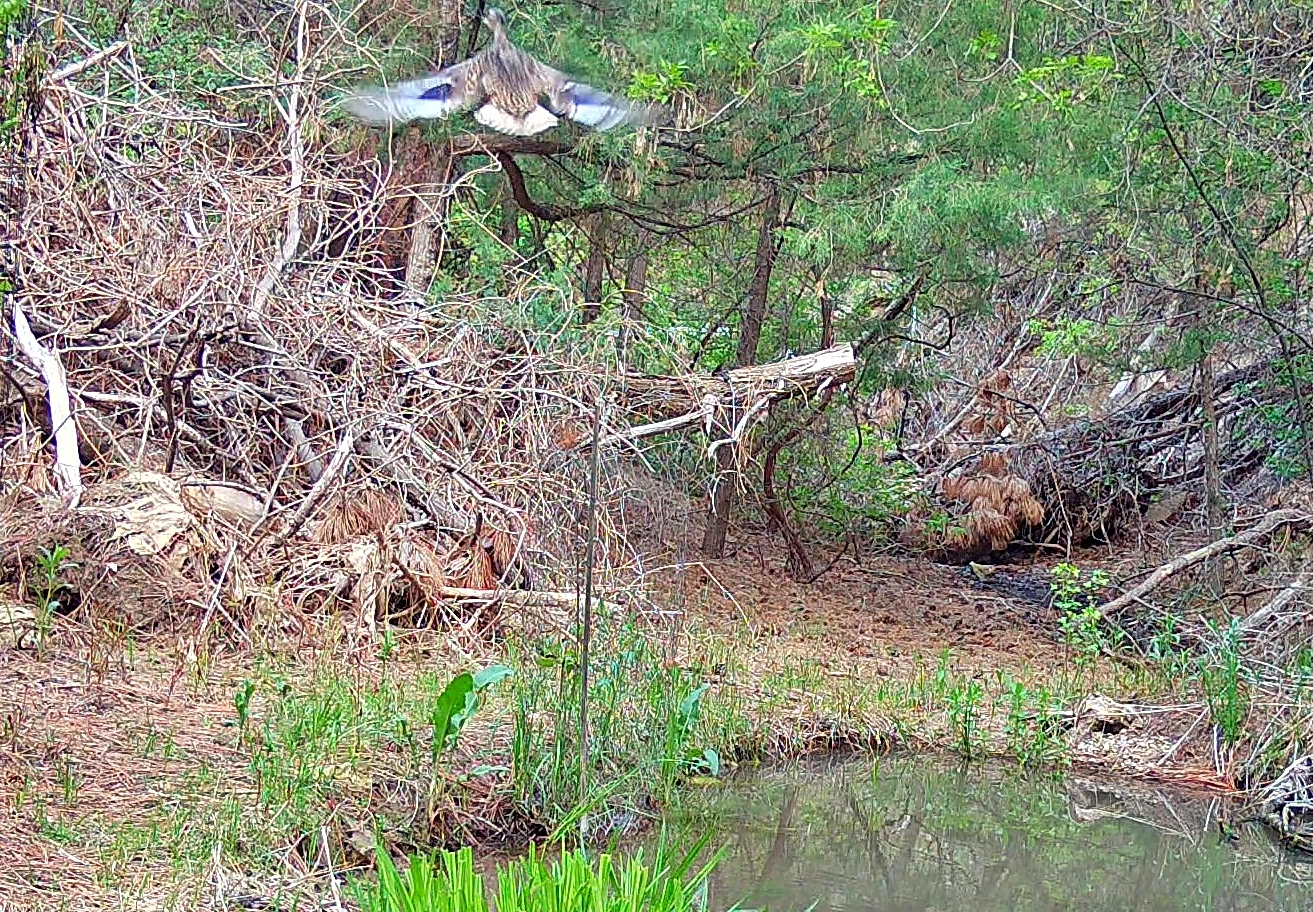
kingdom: Animalia
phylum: Chordata
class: Aves
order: Anseriformes
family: Anatidae
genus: Anas
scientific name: Anas platyrhynchos
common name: Mallard
